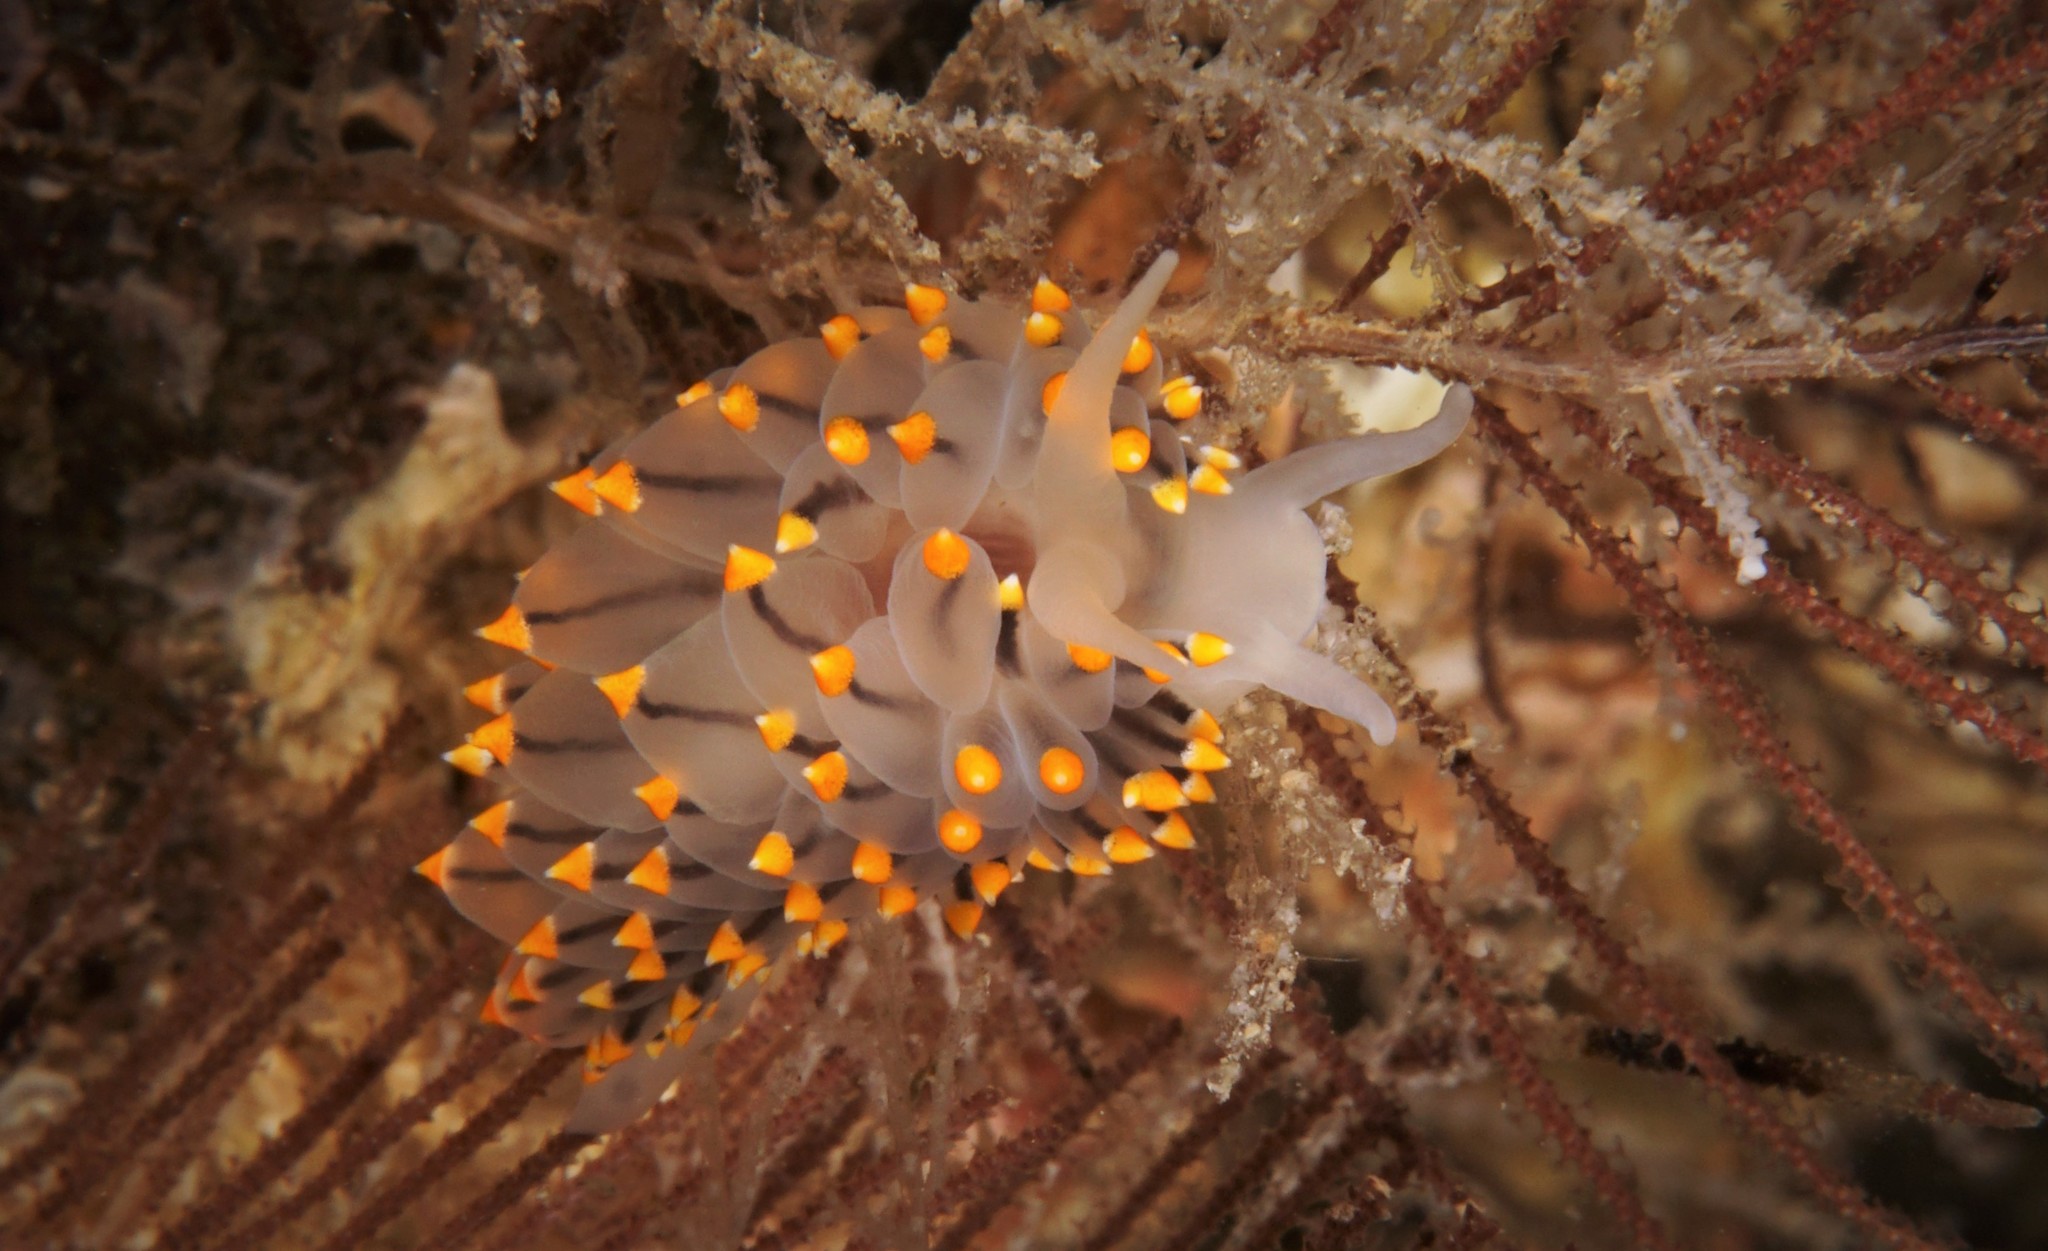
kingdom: Animalia
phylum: Mollusca
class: Gastropoda
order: Nudibranchia
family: Eubranchidae
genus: Eubranchus
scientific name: Eubranchus tricolor
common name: Painted balloon aeolis
